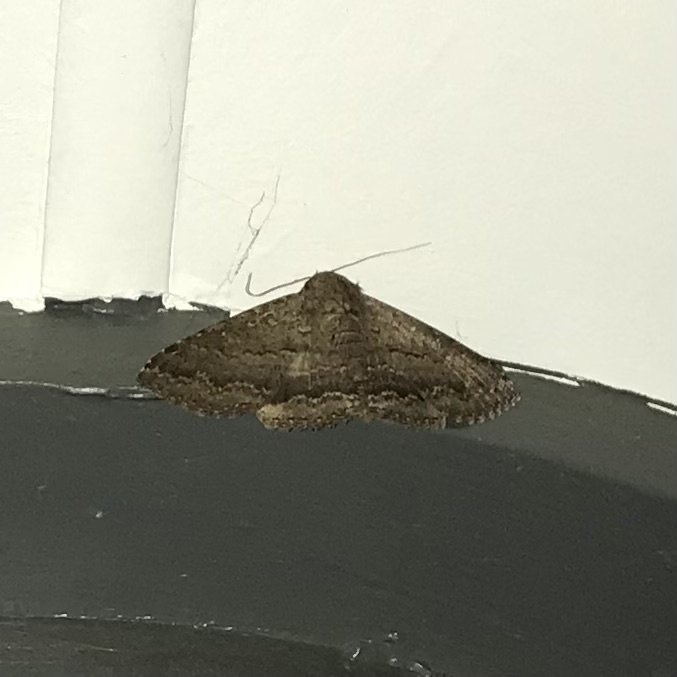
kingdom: Animalia
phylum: Arthropoda
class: Insecta
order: Lepidoptera
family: Erebidae
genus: Eudesmeola
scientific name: Eudesmeola lawsoni
